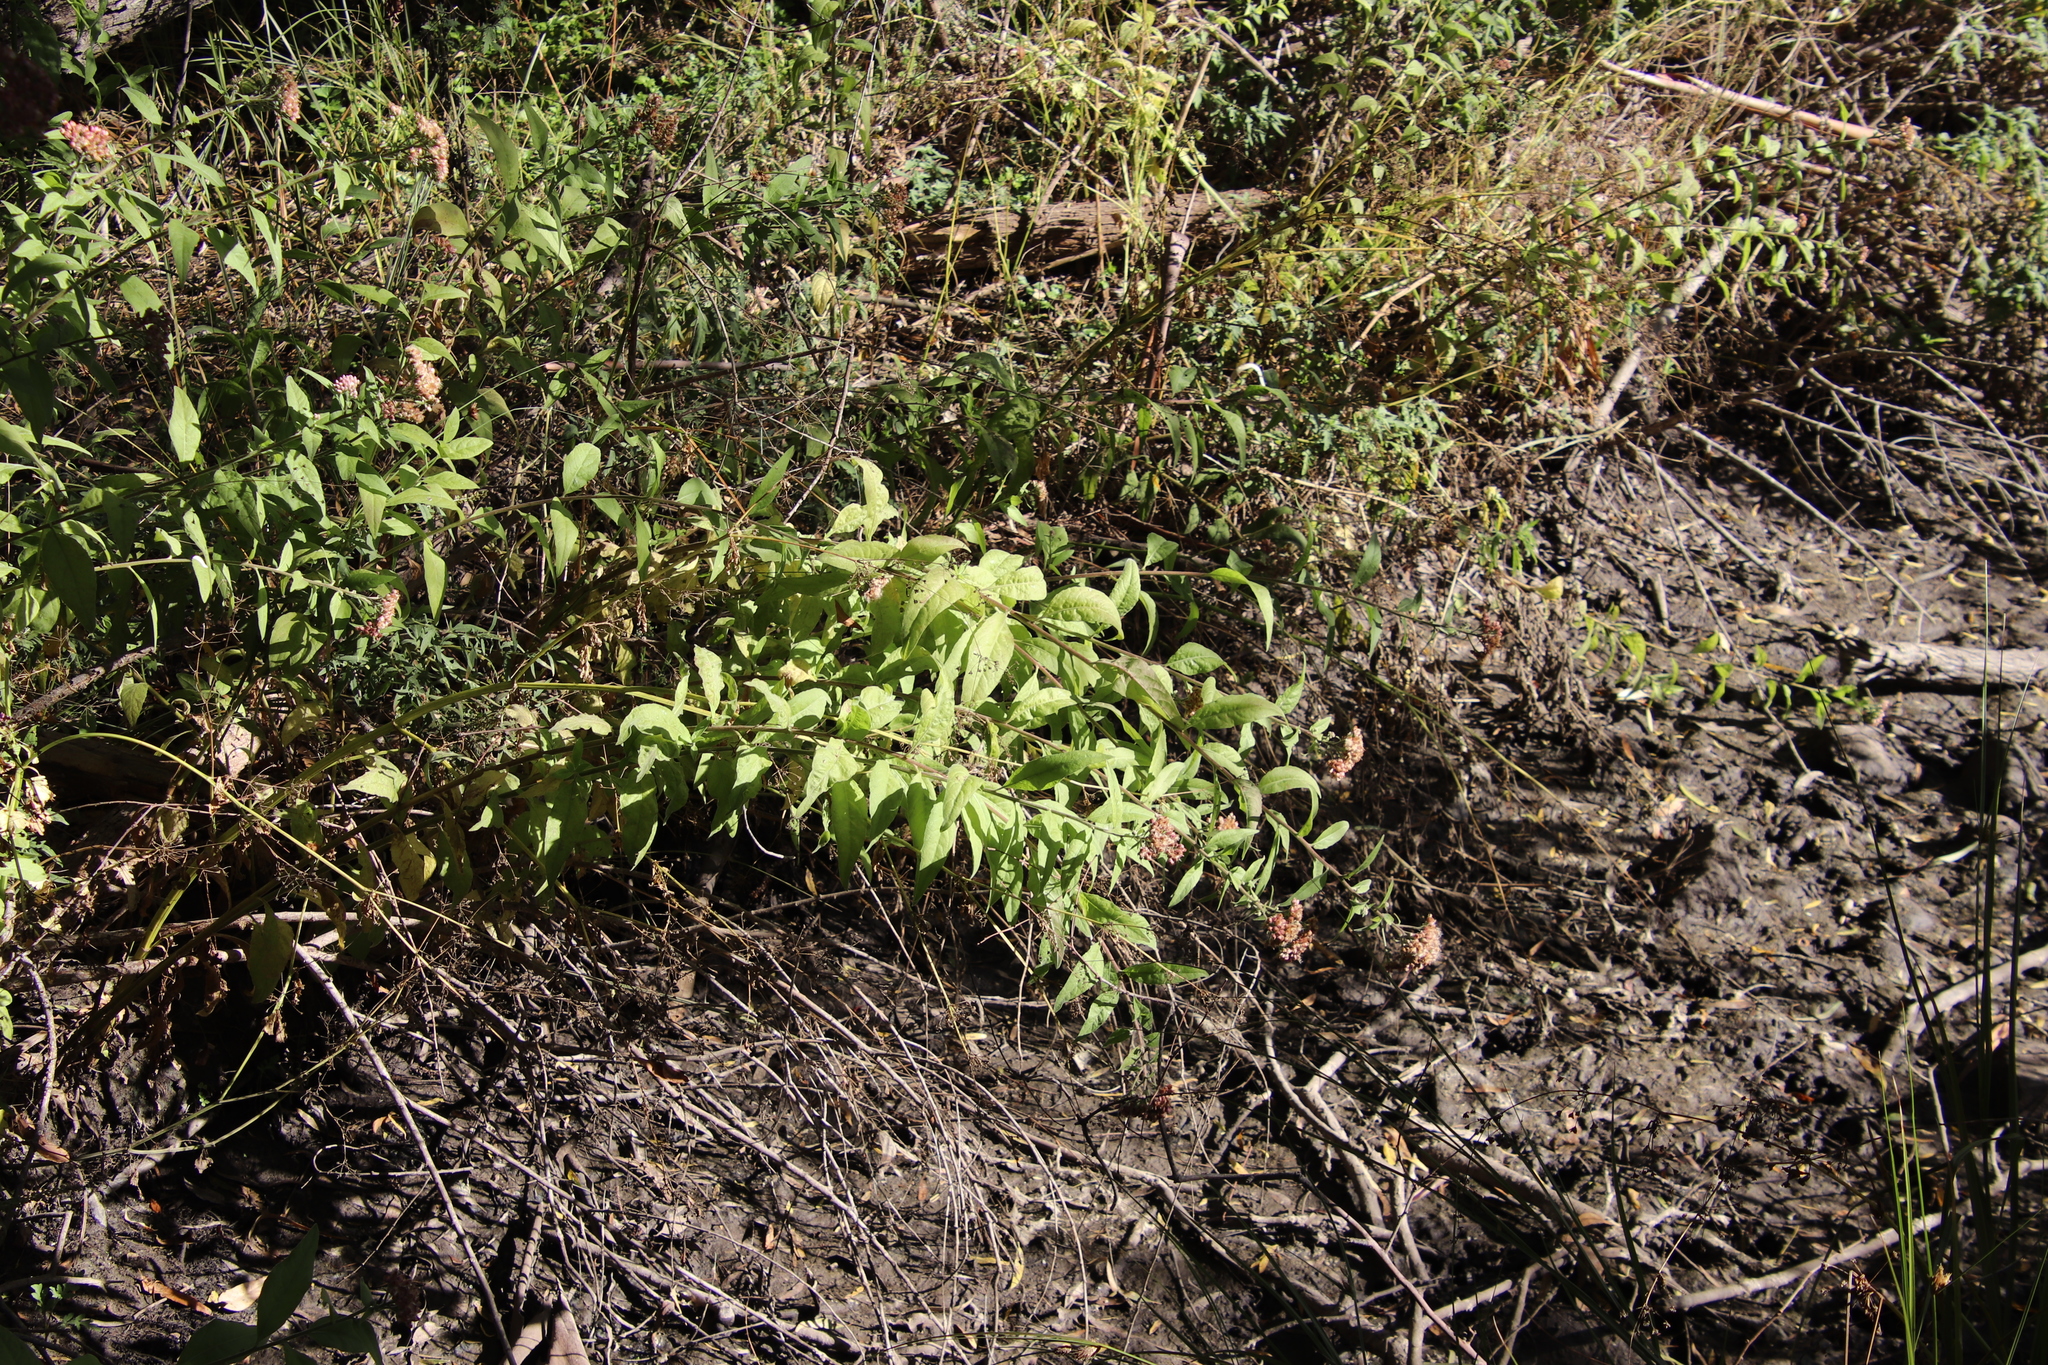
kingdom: Plantae
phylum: Tracheophyta
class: Magnoliopsida
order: Asterales
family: Asteraceae
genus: Pluchea
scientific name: Pluchea odorata
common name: Saltmarsh fleabane
